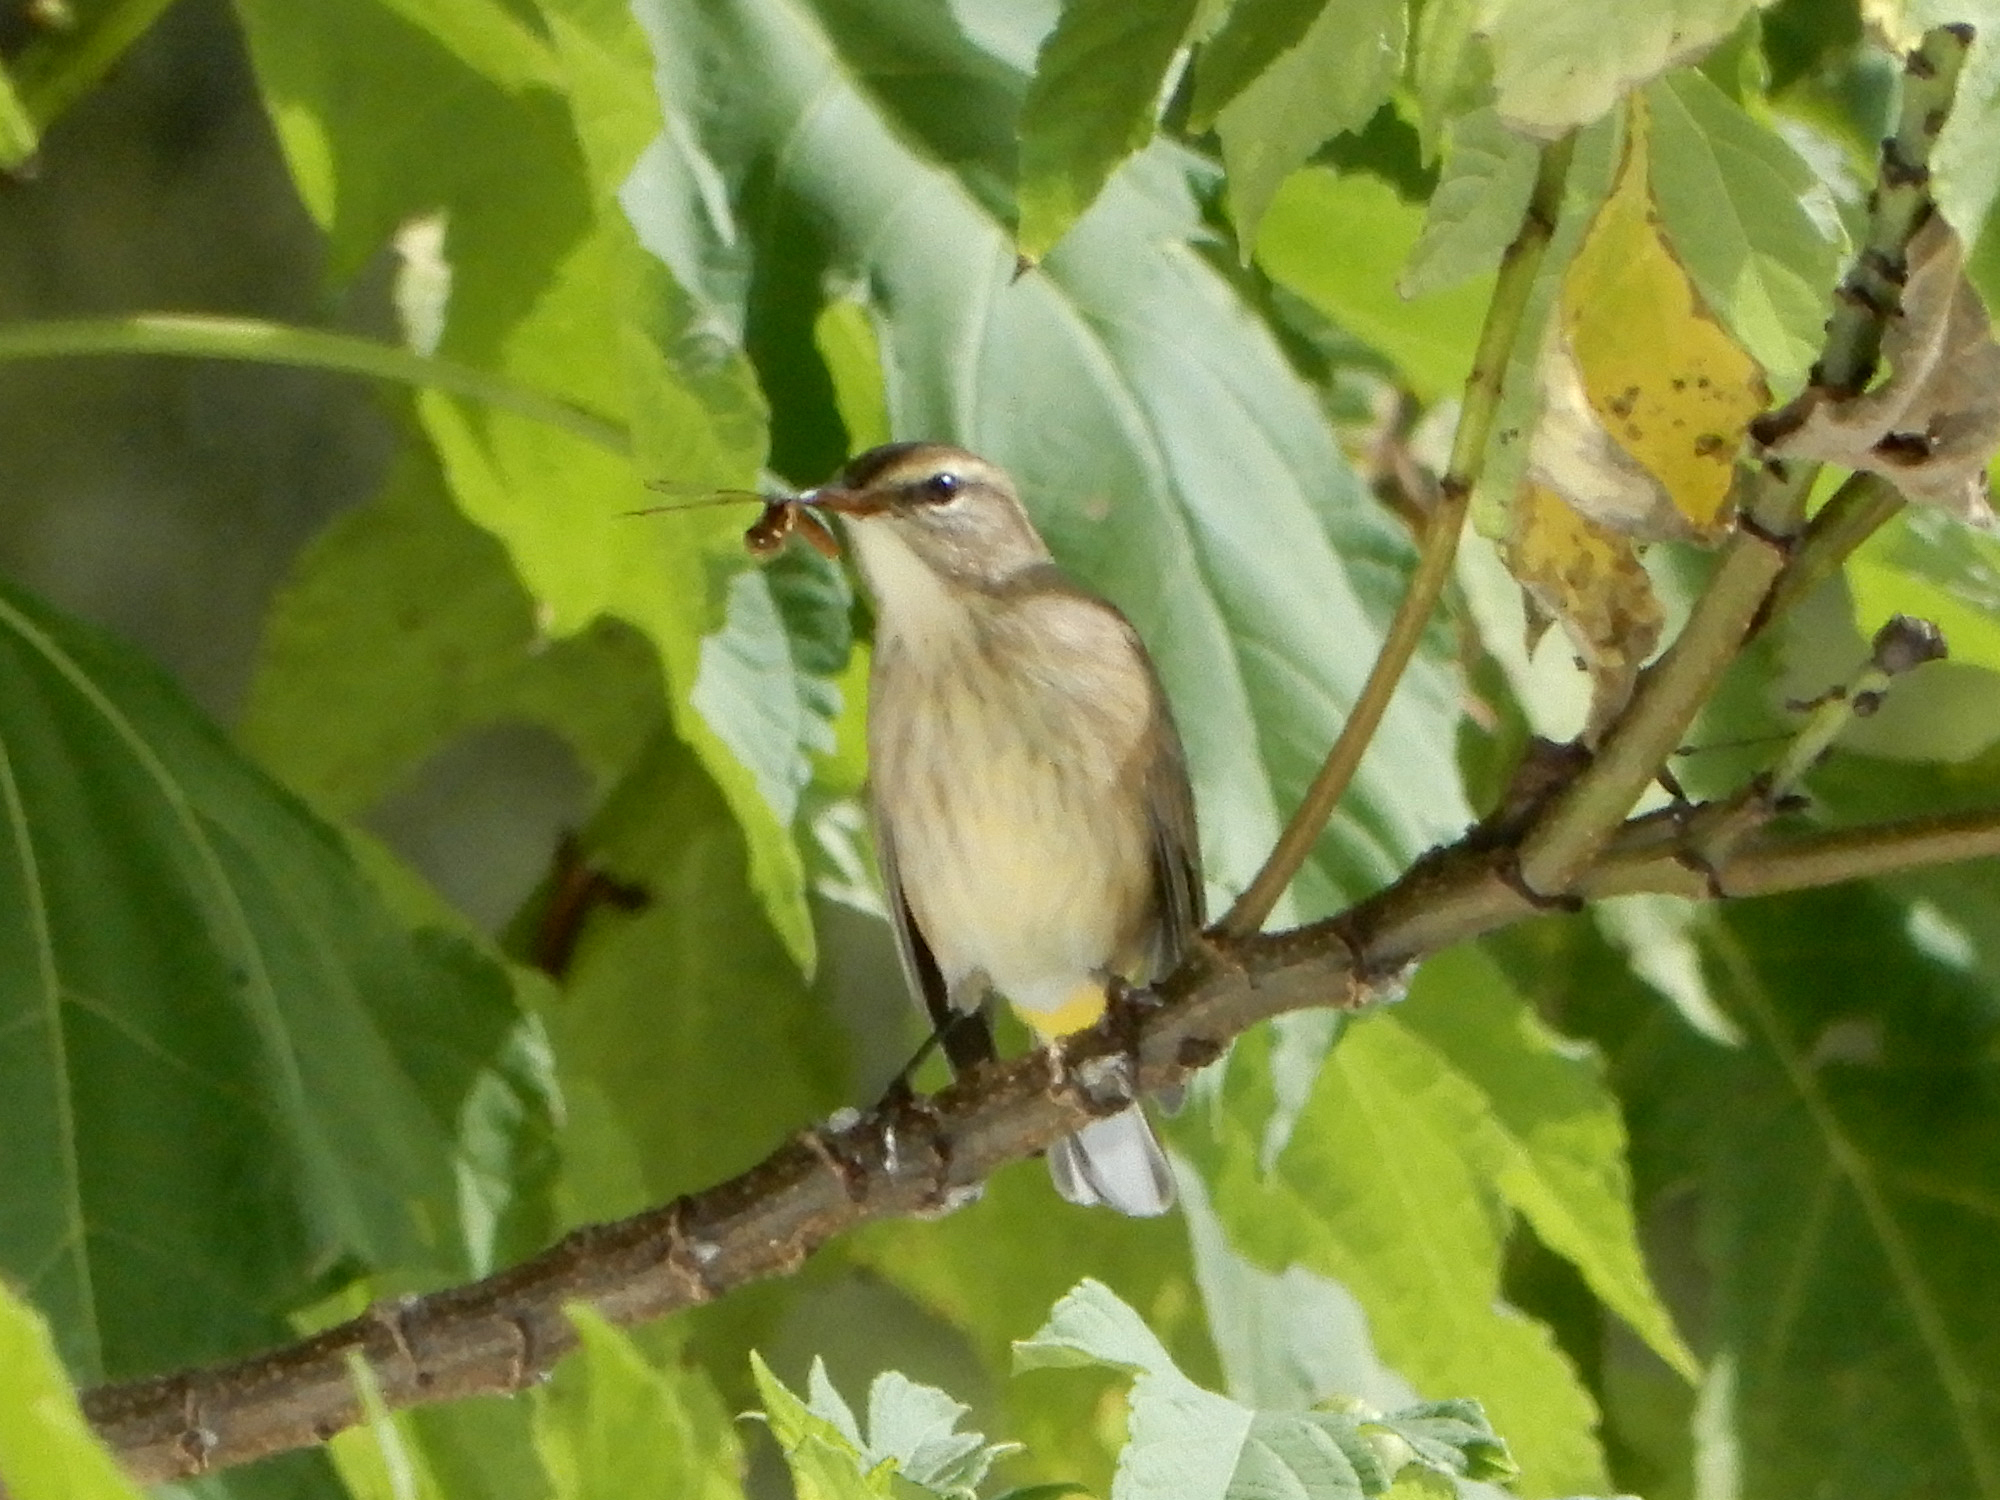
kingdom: Animalia
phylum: Chordata
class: Aves
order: Passeriformes
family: Parulidae
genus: Setophaga
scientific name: Setophaga palmarum
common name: Palm warbler
